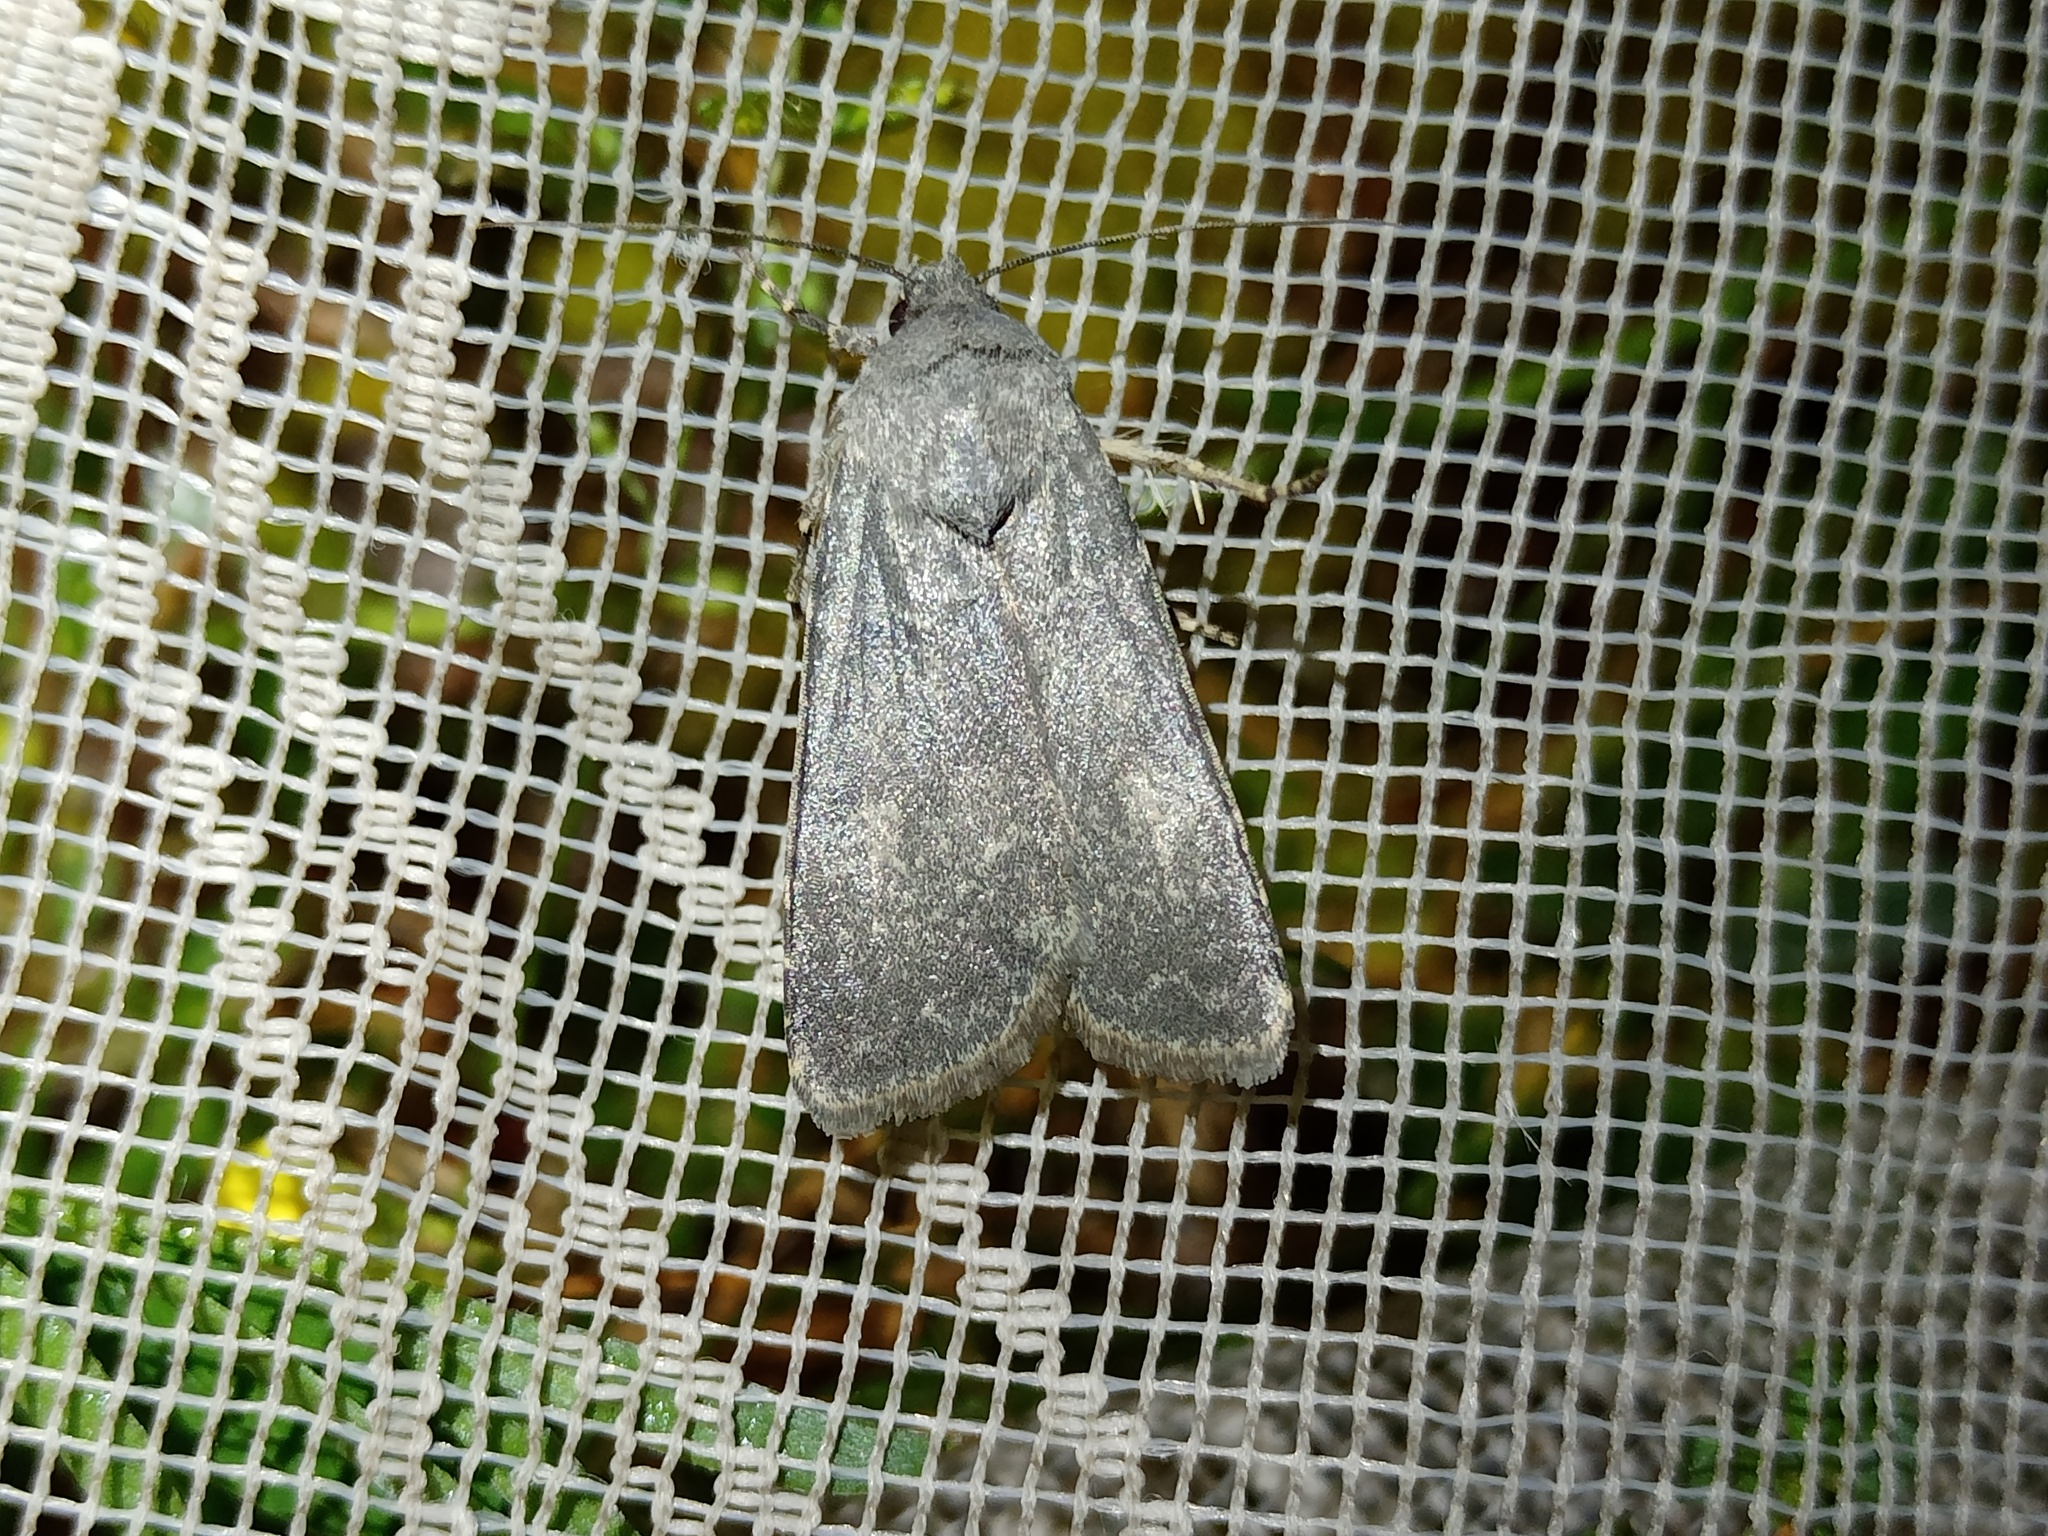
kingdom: Animalia
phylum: Arthropoda
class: Insecta
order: Lepidoptera
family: Noctuidae
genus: Euxoa
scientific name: Euxoa birivia
